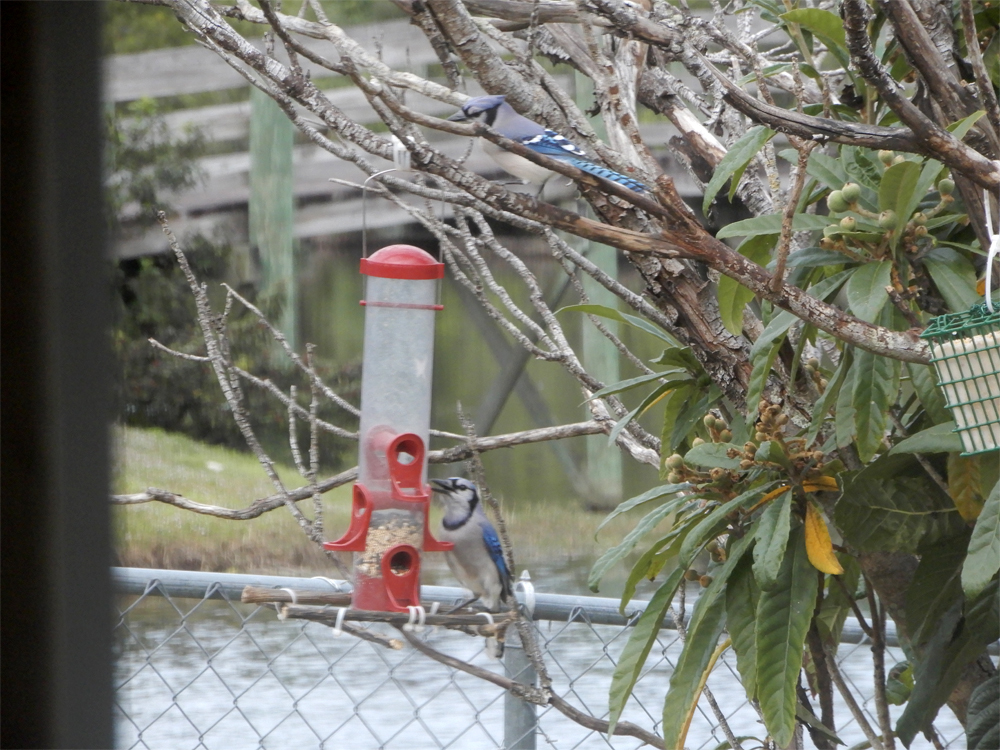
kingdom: Animalia
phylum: Chordata
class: Aves
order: Passeriformes
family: Corvidae
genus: Cyanocitta
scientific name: Cyanocitta cristata
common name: Blue jay
